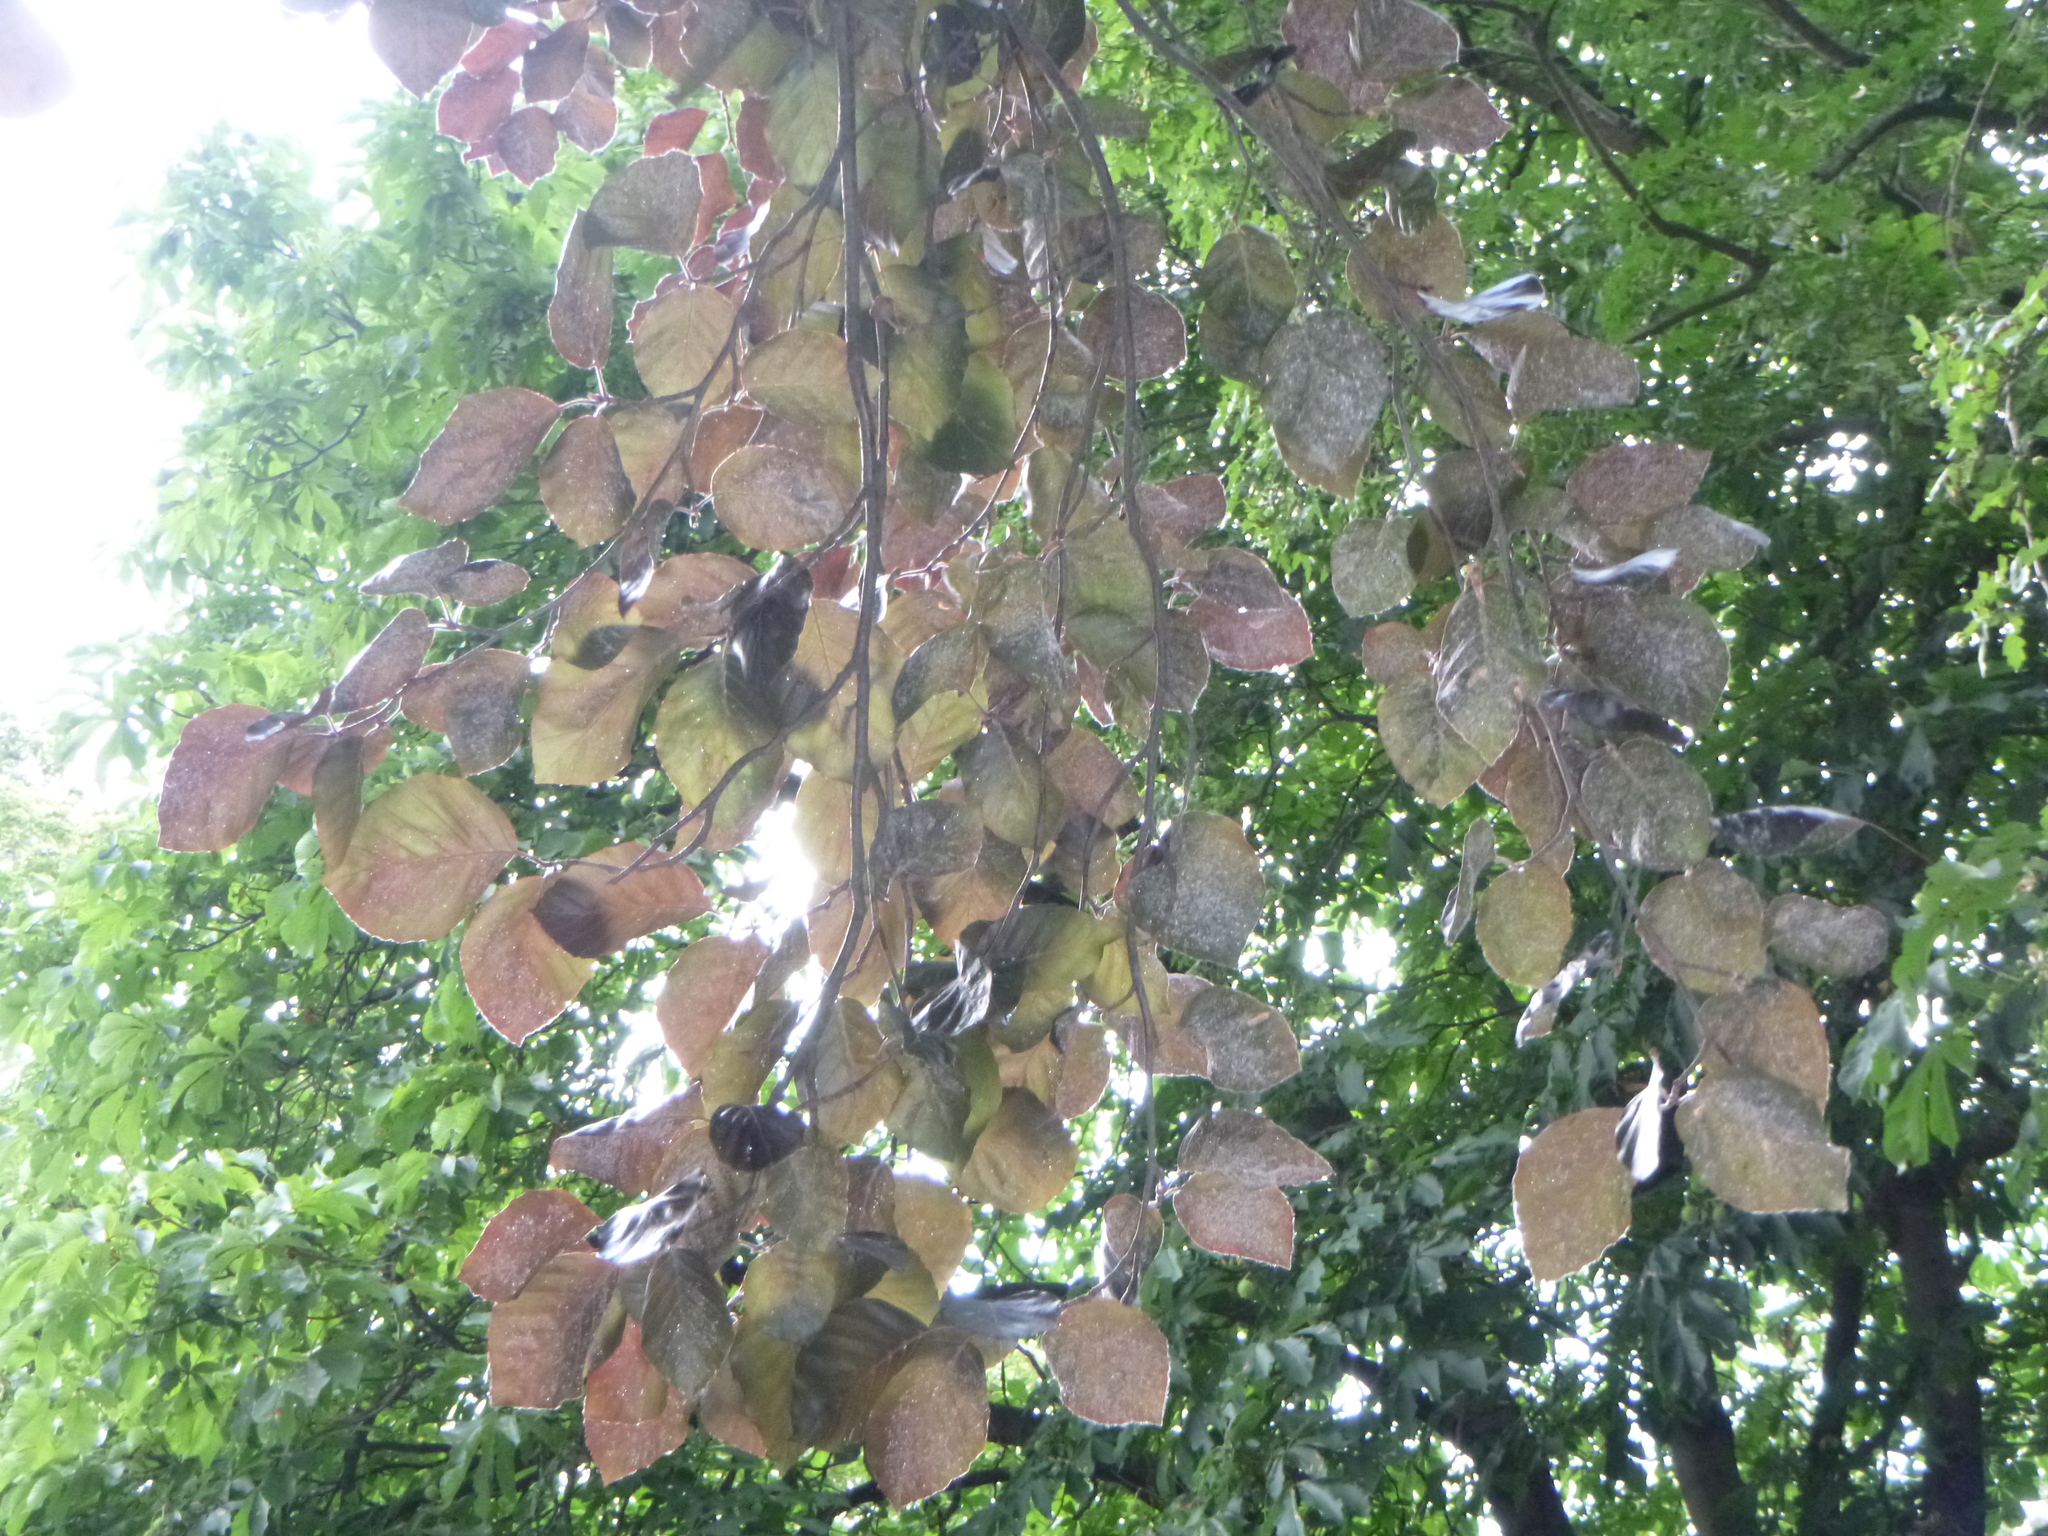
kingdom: Plantae
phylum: Tracheophyta
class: Magnoliopsida
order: Fagales
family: Fagaceae
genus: Fagus
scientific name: Fagus sylvatica
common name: Beech
